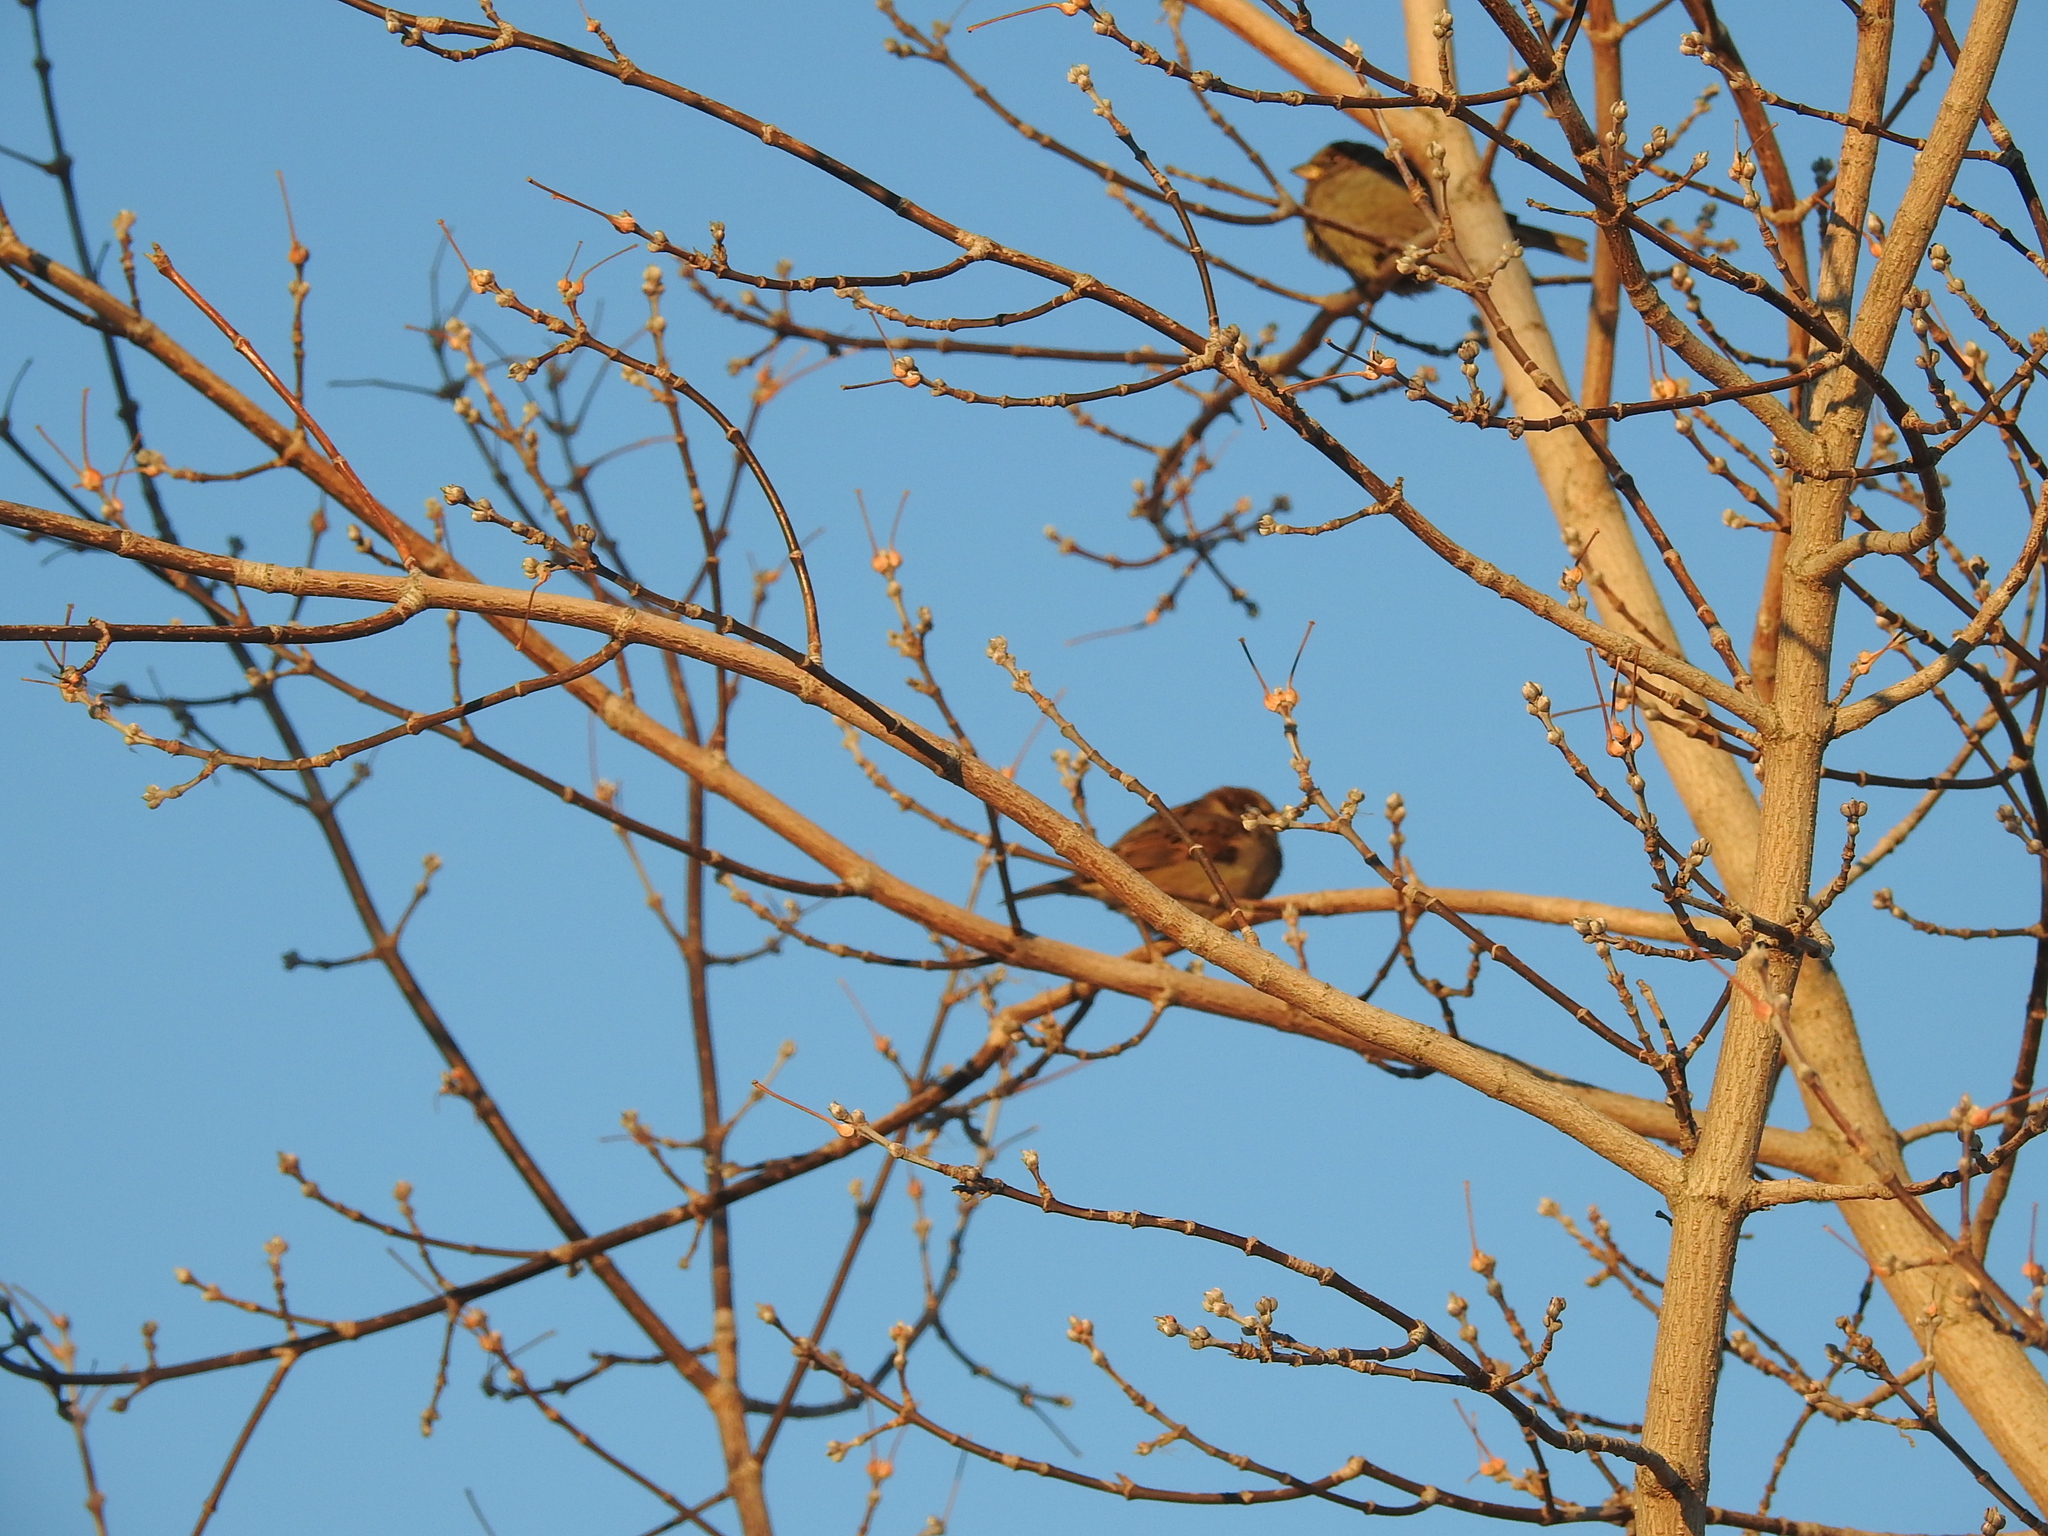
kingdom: Animalia
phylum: Chordata
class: Aves
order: Passeriformes
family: Passeridae
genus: Passer
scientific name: Passer domesticus
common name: House sparrow
